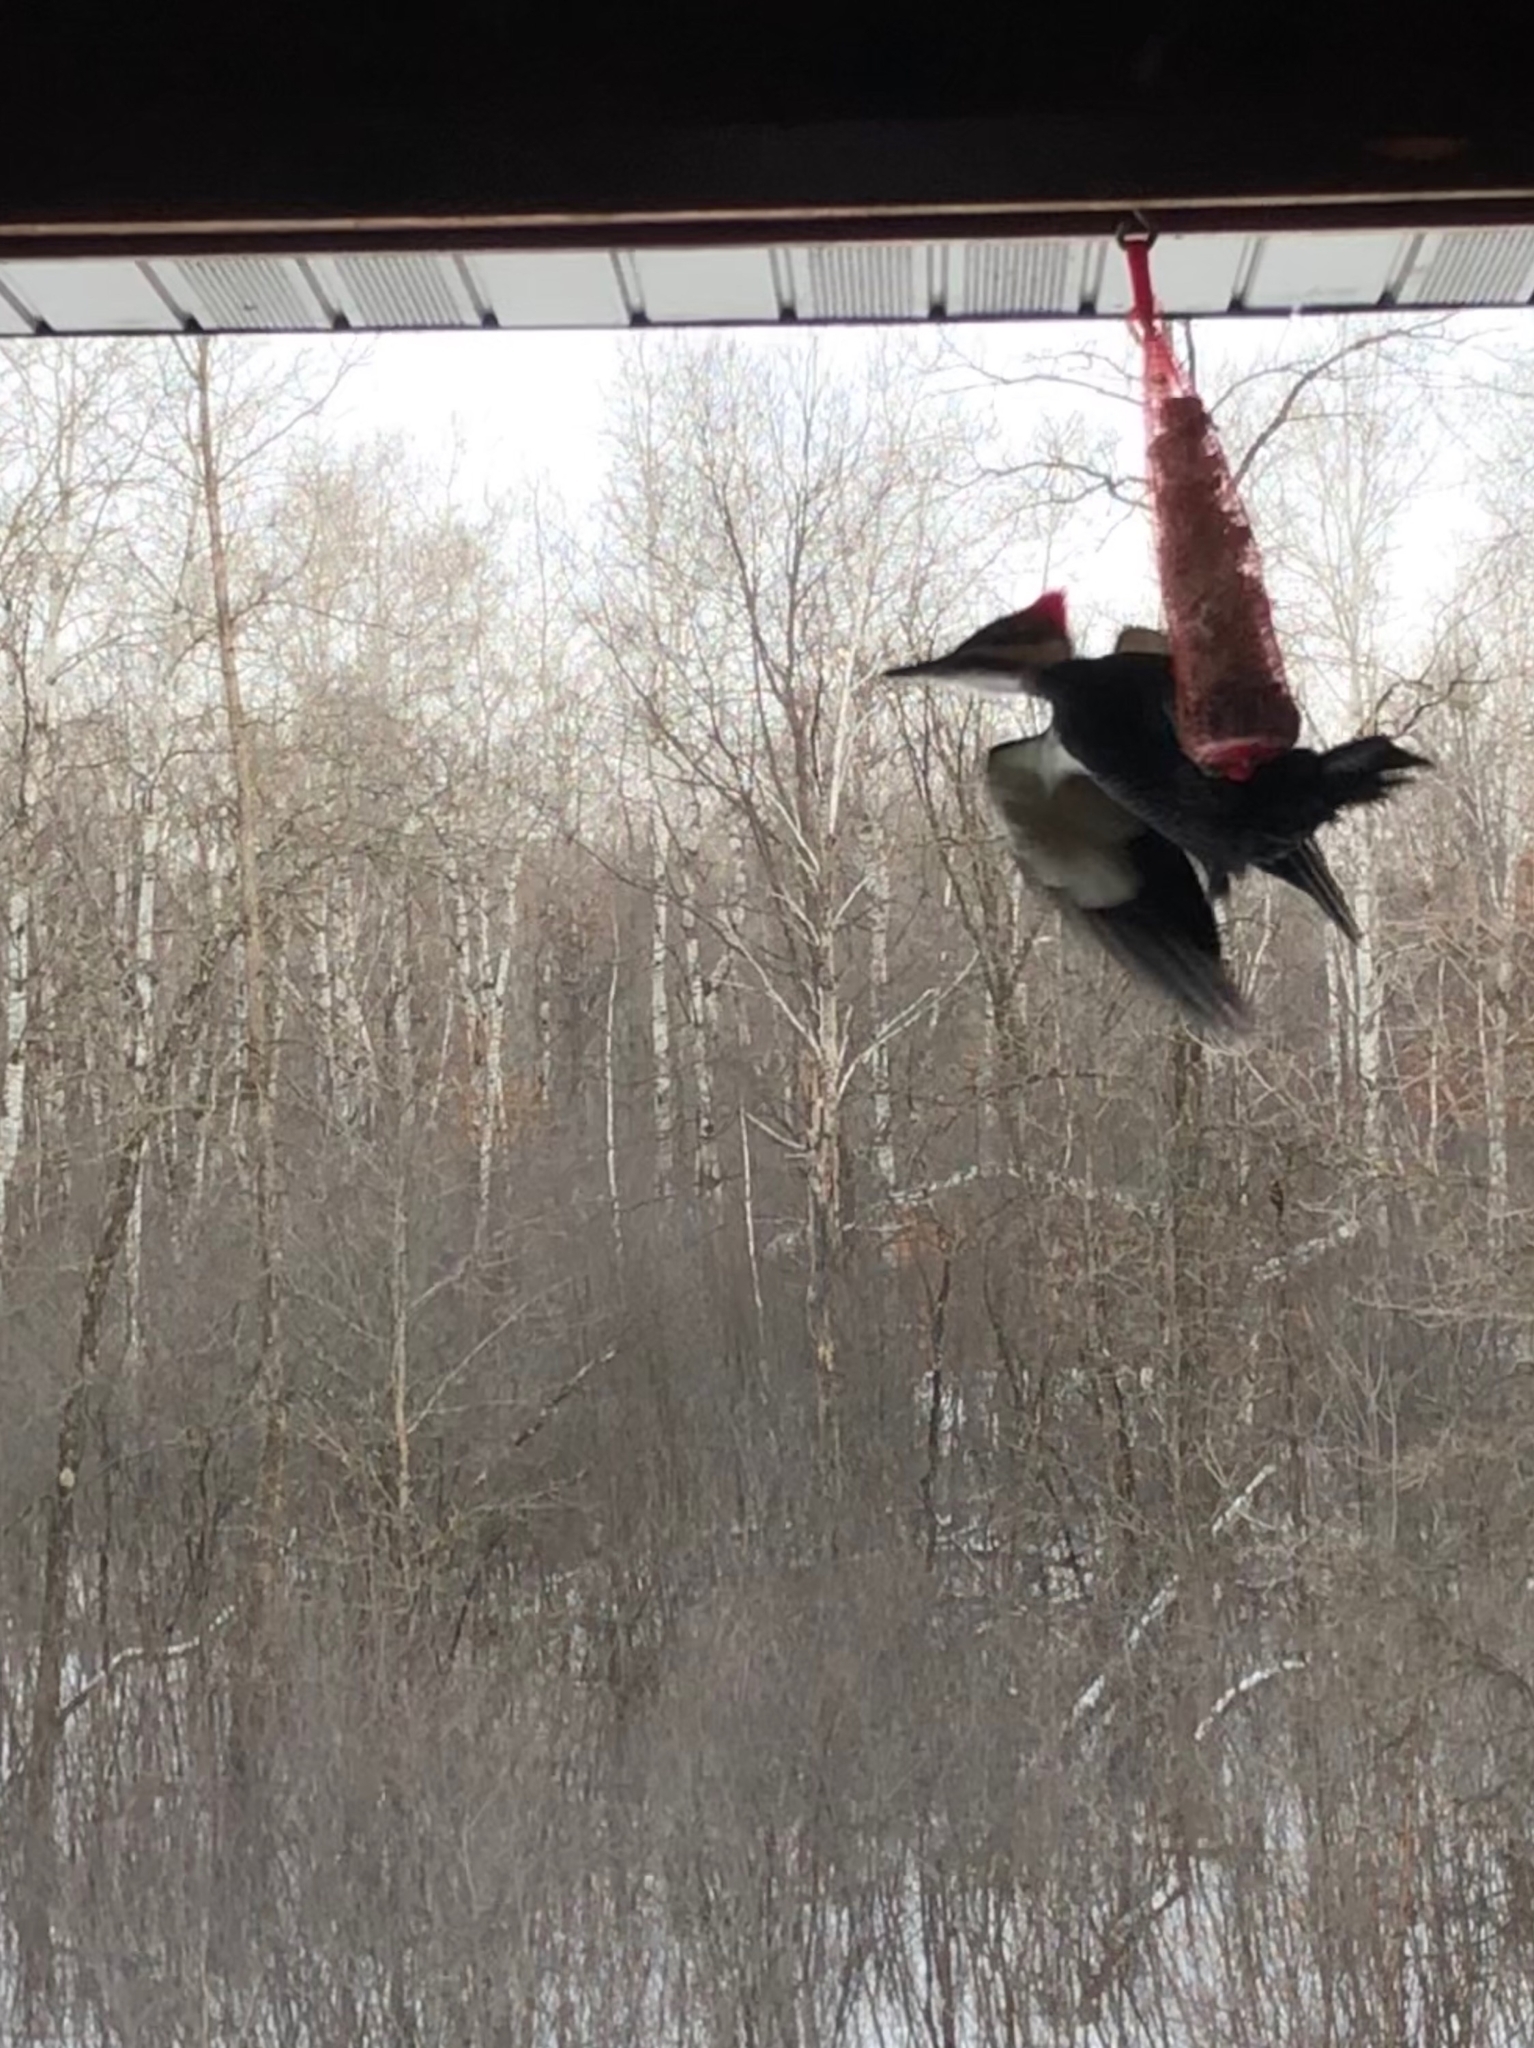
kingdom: Animalia
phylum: Chordata
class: Aves
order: Piciformes
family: Picidae
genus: Dryocopus
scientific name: Dryocopus pileatus
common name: Pileated woodpecker
